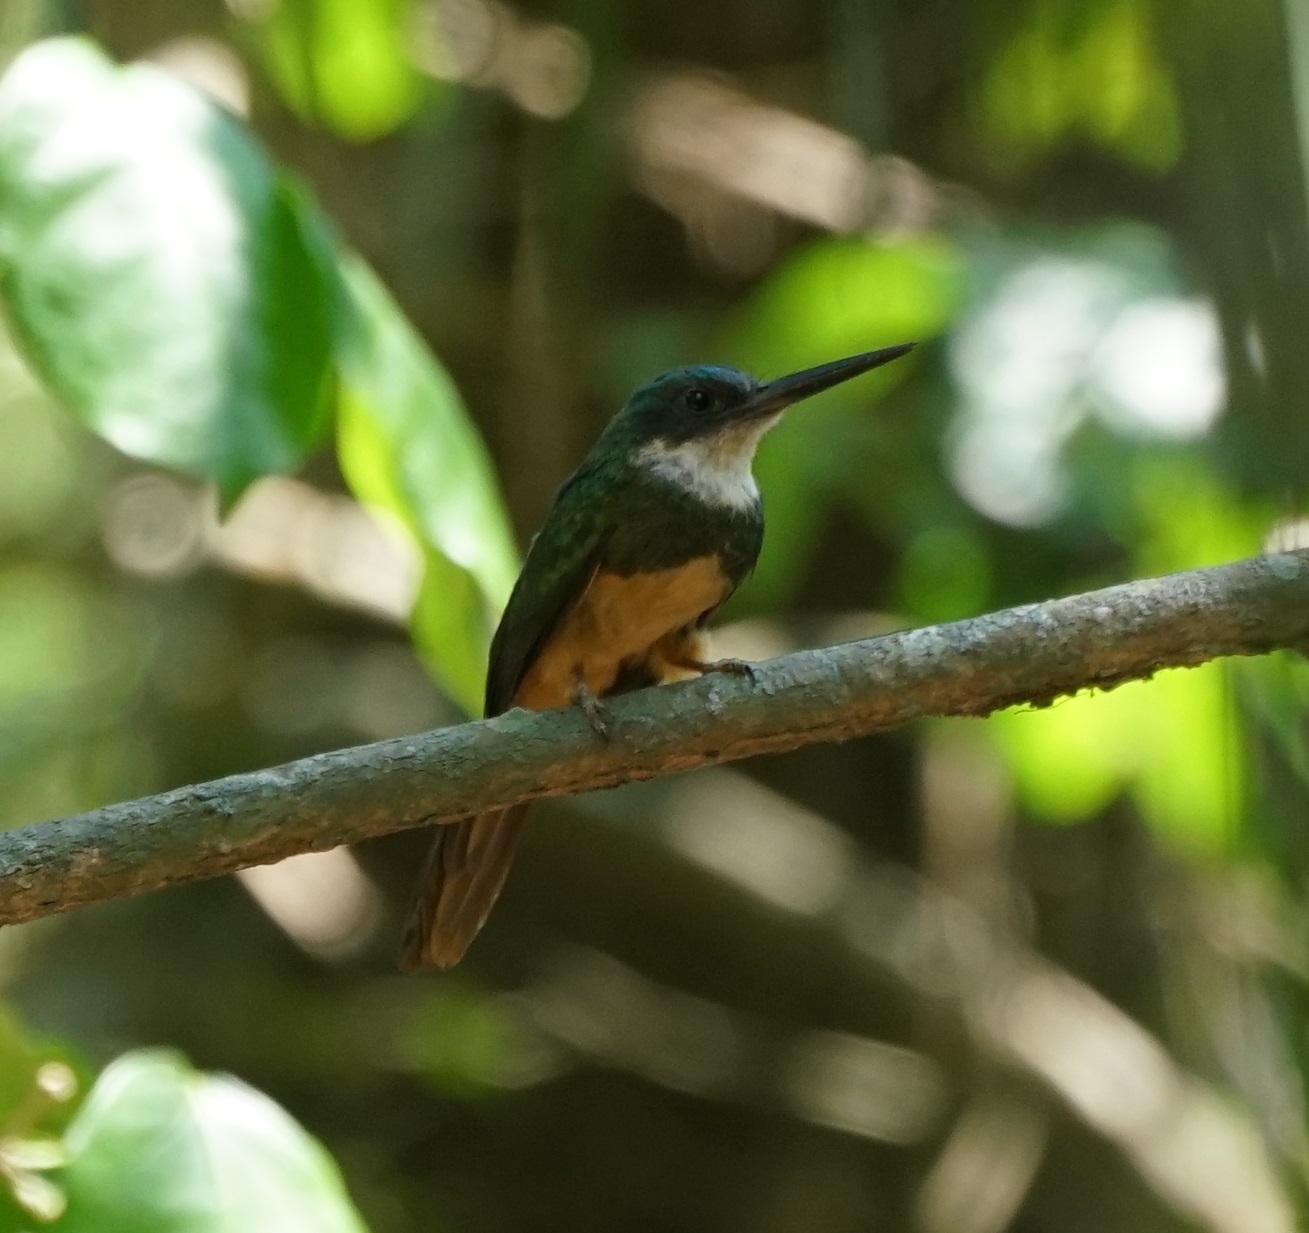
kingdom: Animalia
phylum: Chordata
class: Aves
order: Piciformes
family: Galbulidae
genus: Galbula
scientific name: Galbula ruficauda
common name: Rufous-tailed jacamar
